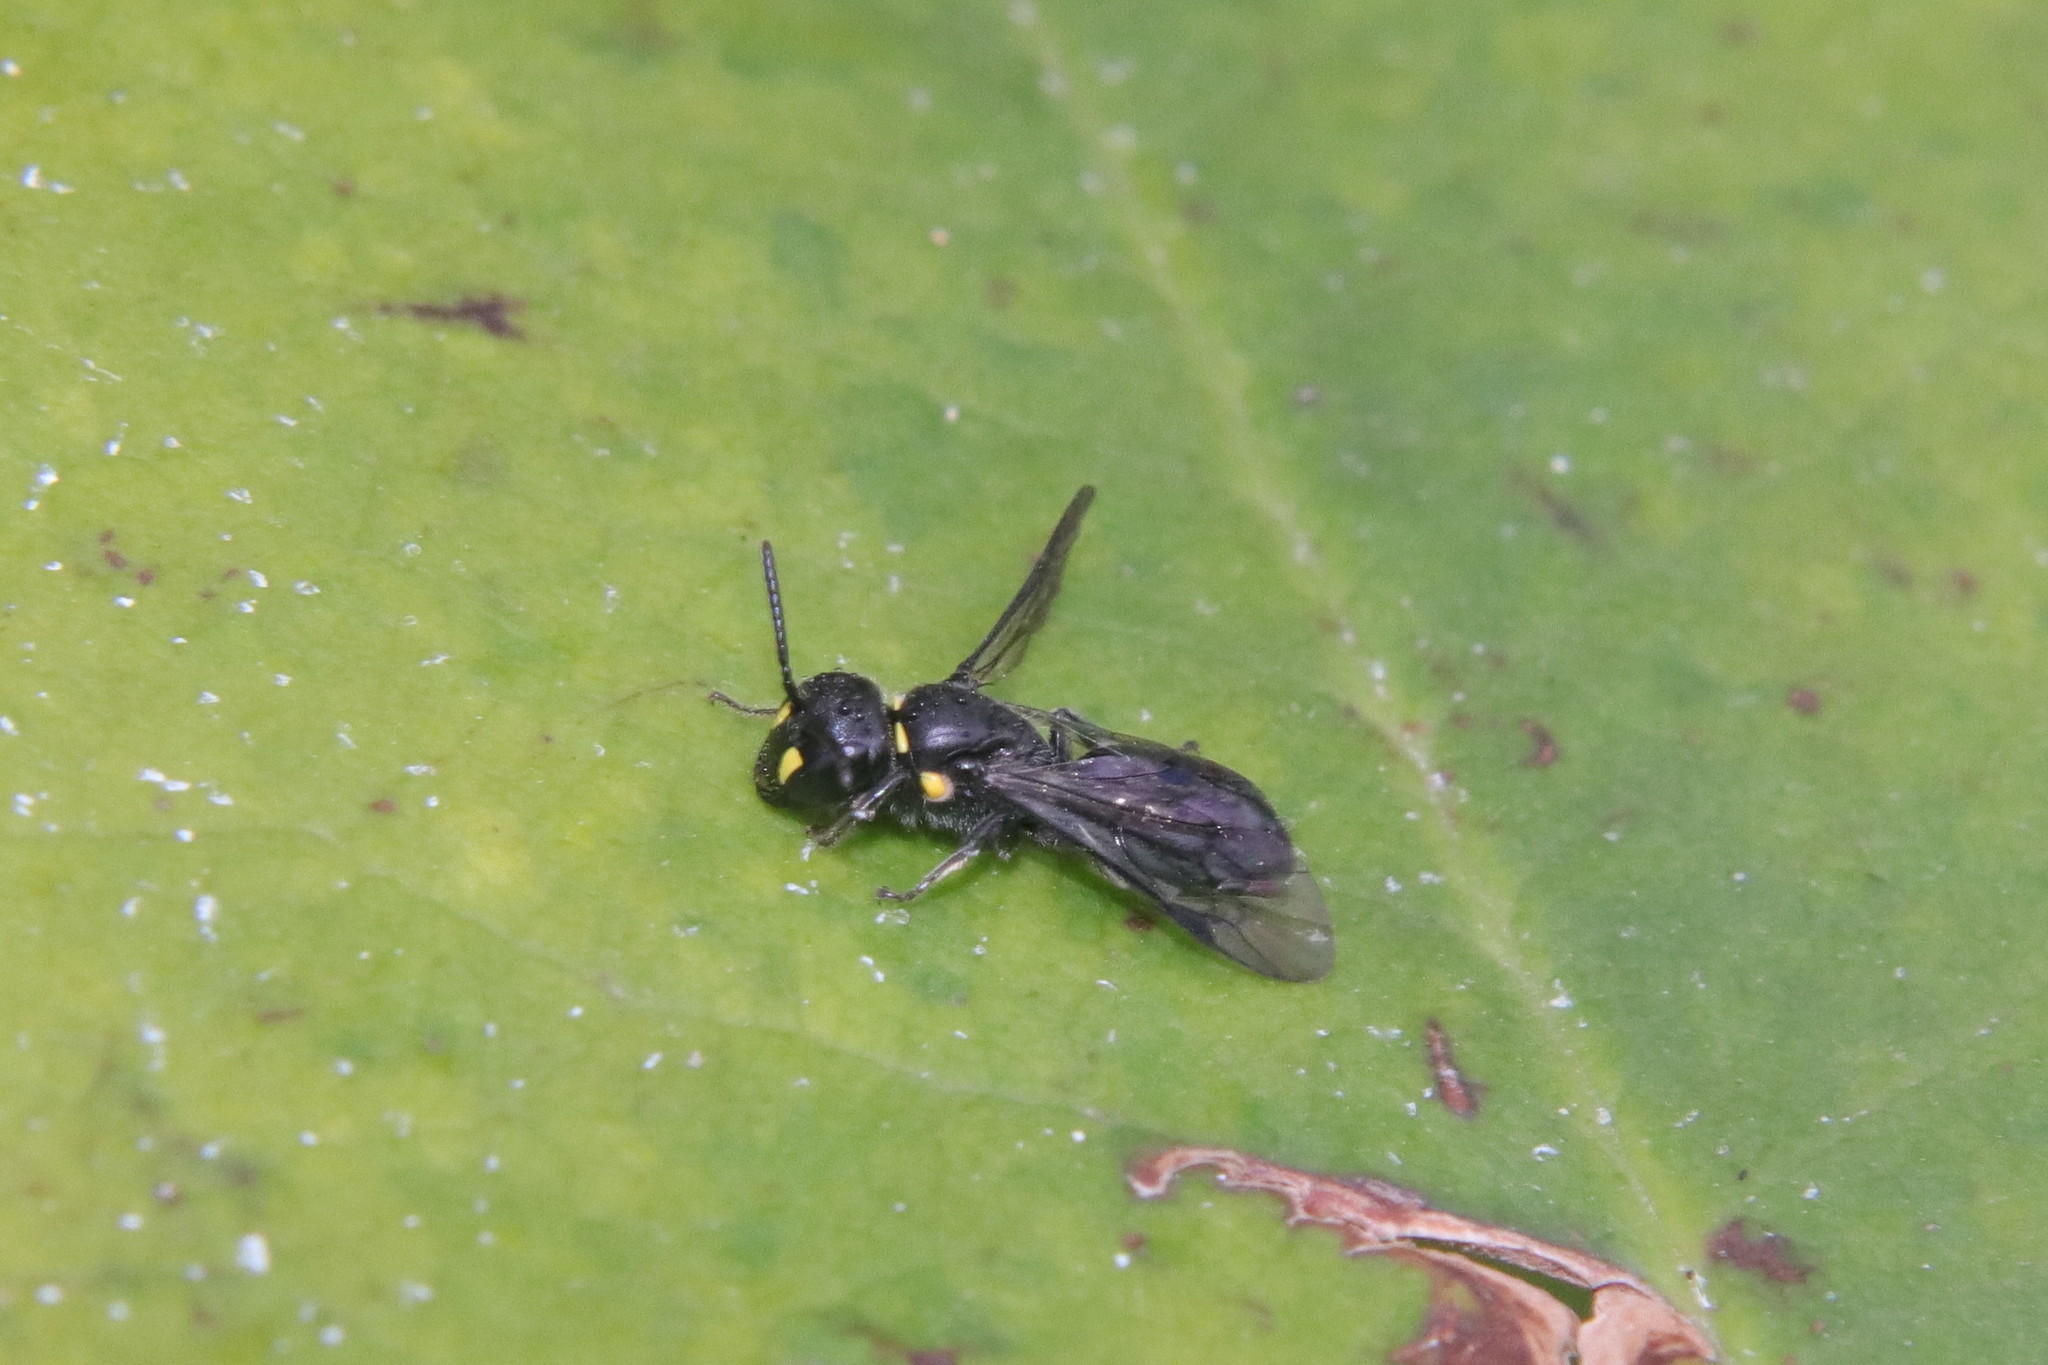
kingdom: Animalia
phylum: Arthropoda
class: Insecta
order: Hymenoptera
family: Colletidae
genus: Hylaeus
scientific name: Hylaeus agilis
